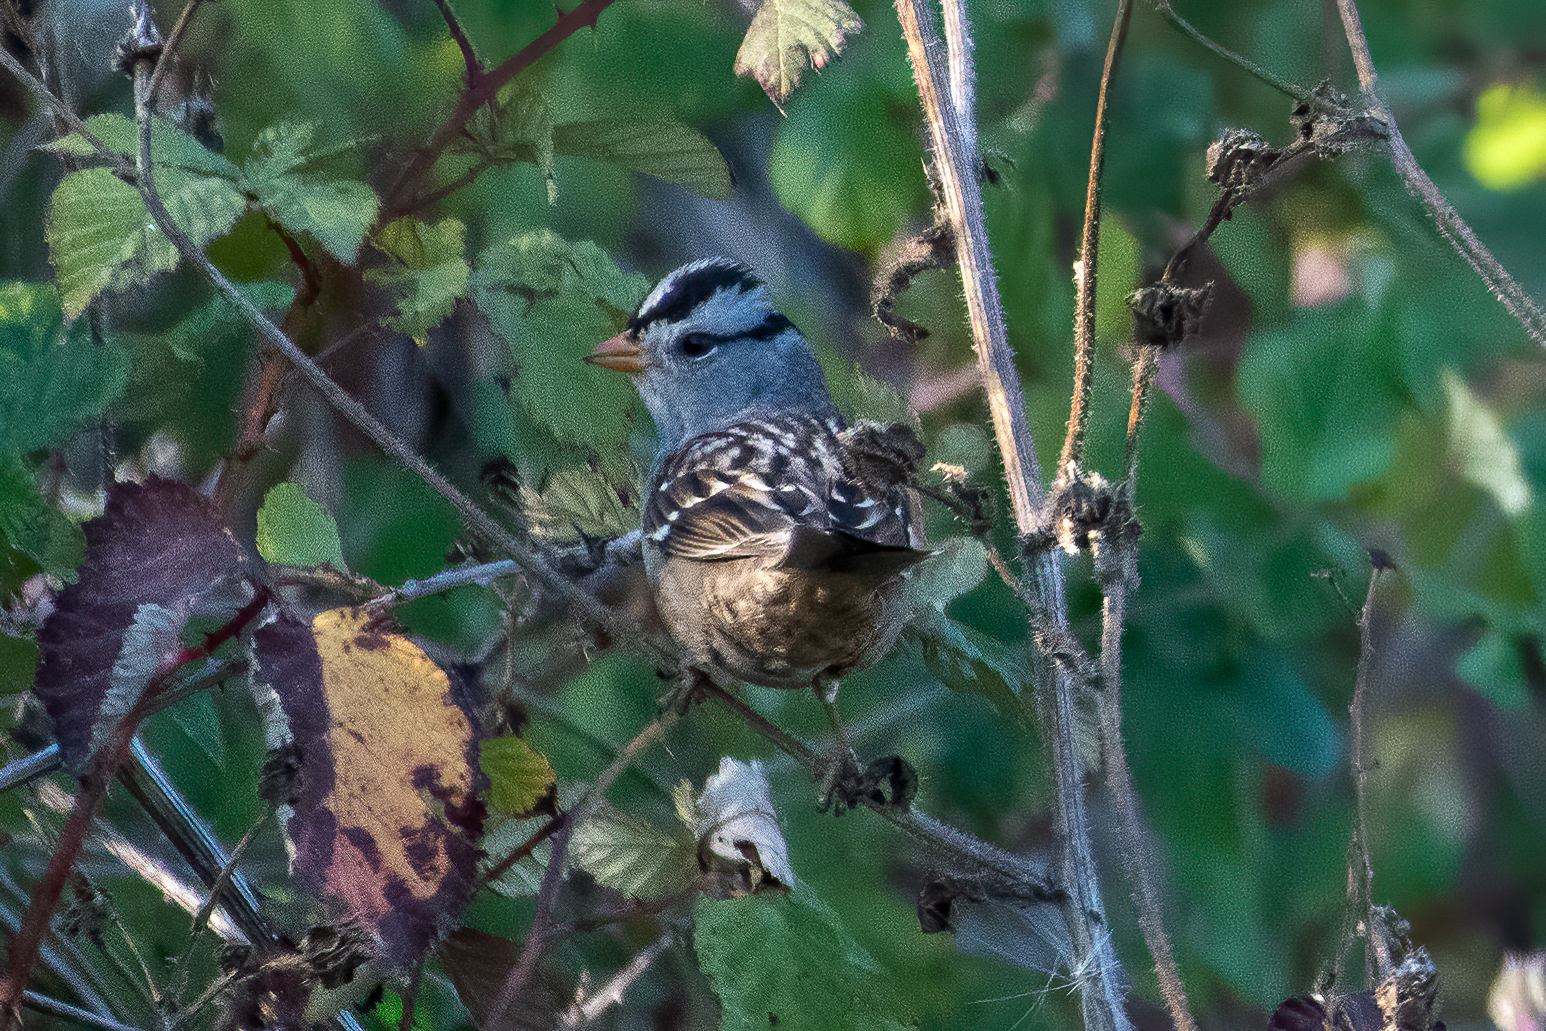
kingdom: Animalia
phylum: Chordata
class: Aves
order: Passeriformes
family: Passerellidae
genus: Zonotrichia
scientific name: Zonotrichia leucophrys
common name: White-crowned sparrow
